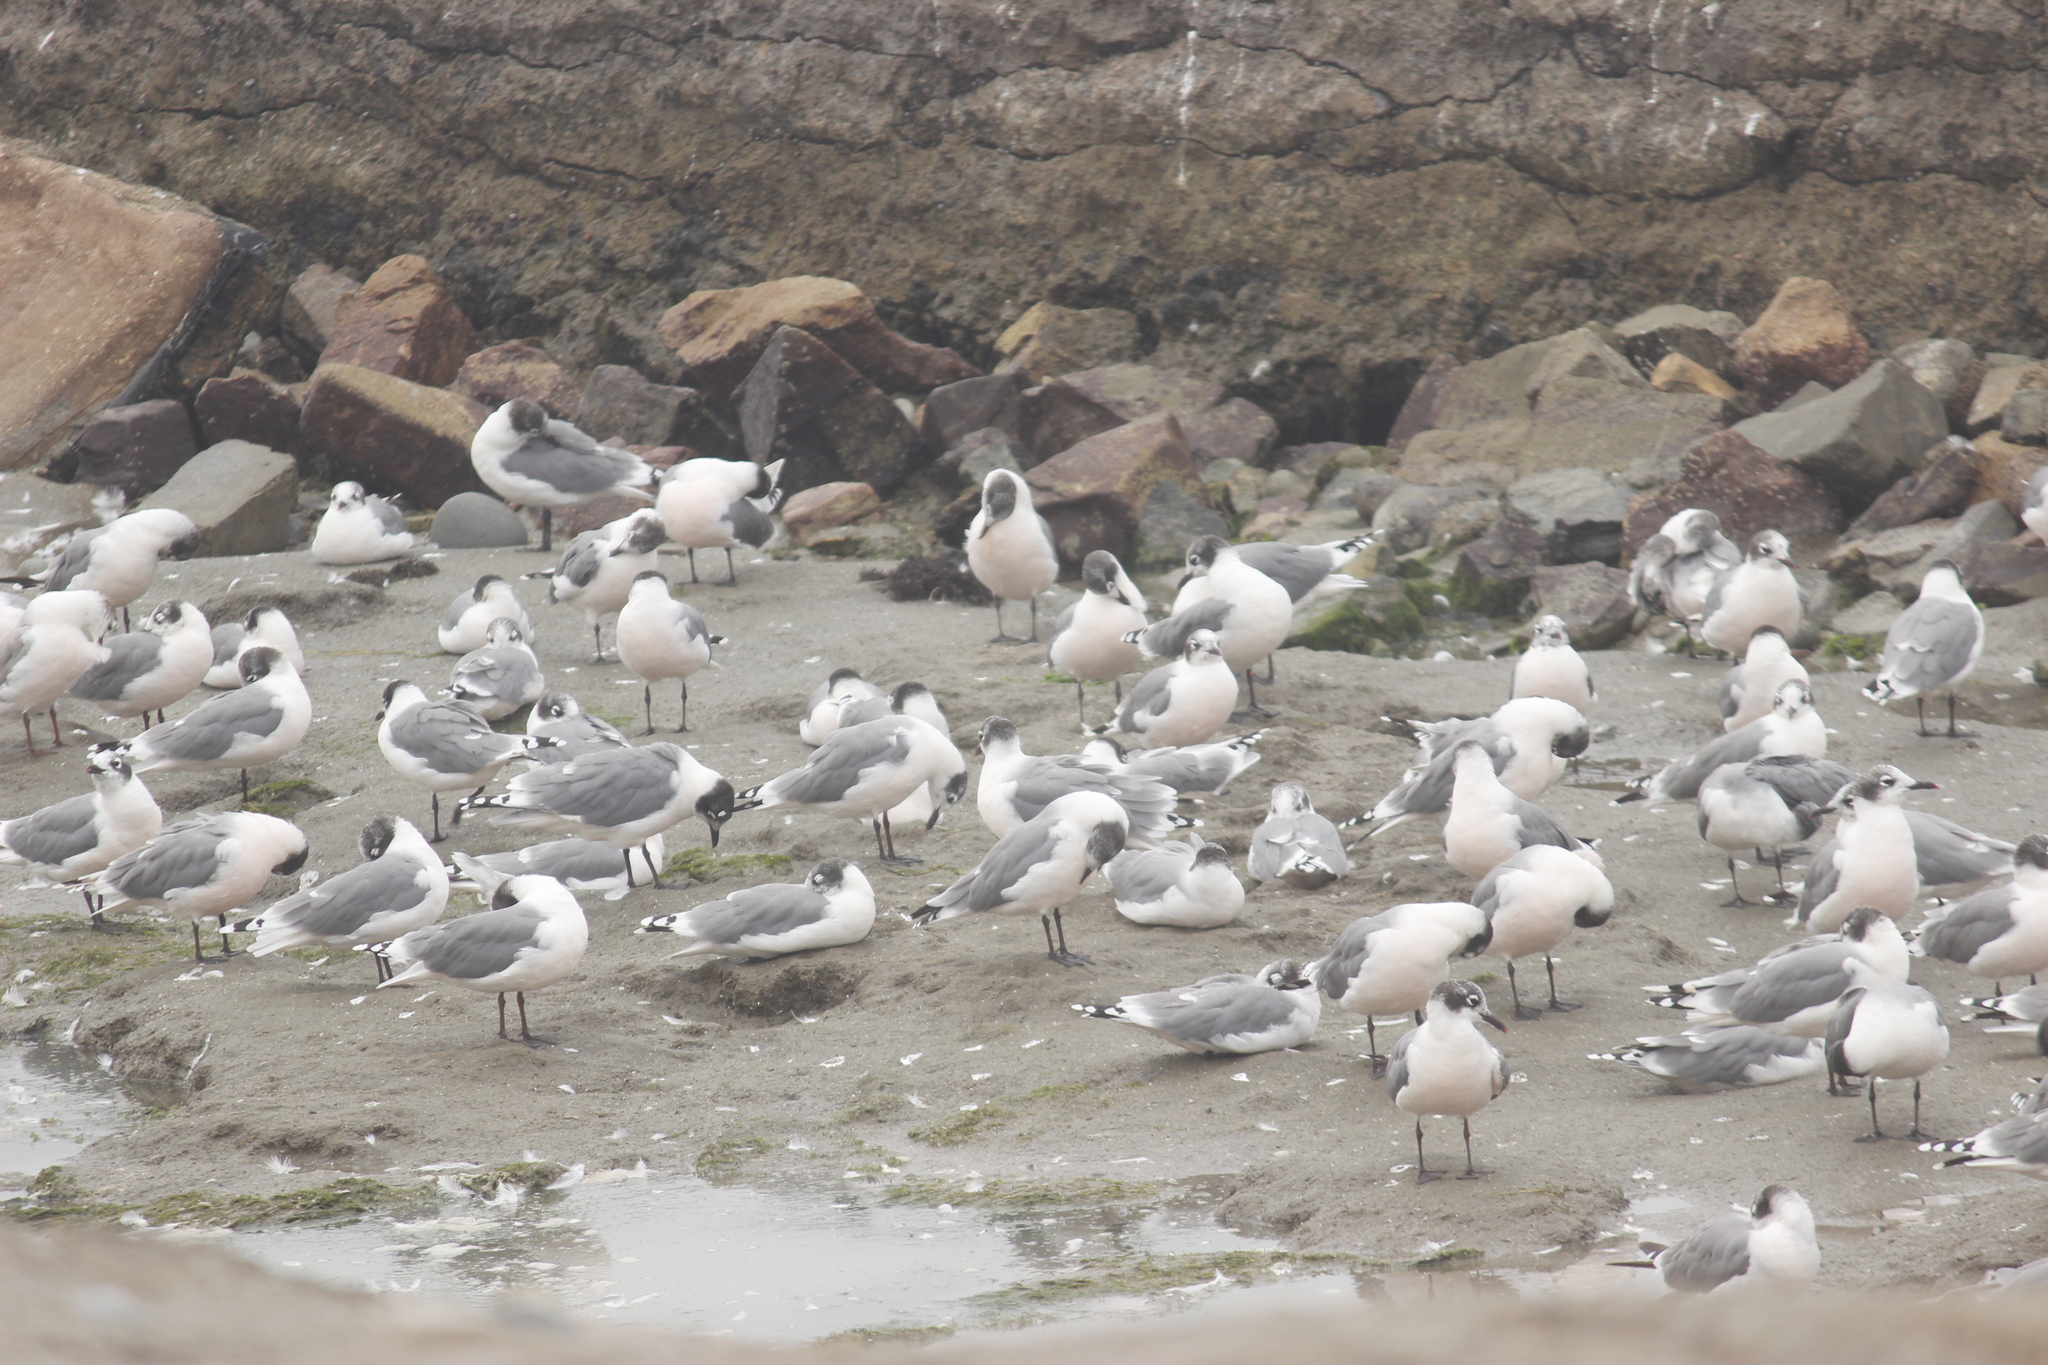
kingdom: Animalia
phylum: Chordata
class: Aves
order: Charadriiformes
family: Laridae
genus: Leucophaeus
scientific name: Leucophaeus pipixcan
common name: Franklin's gull
